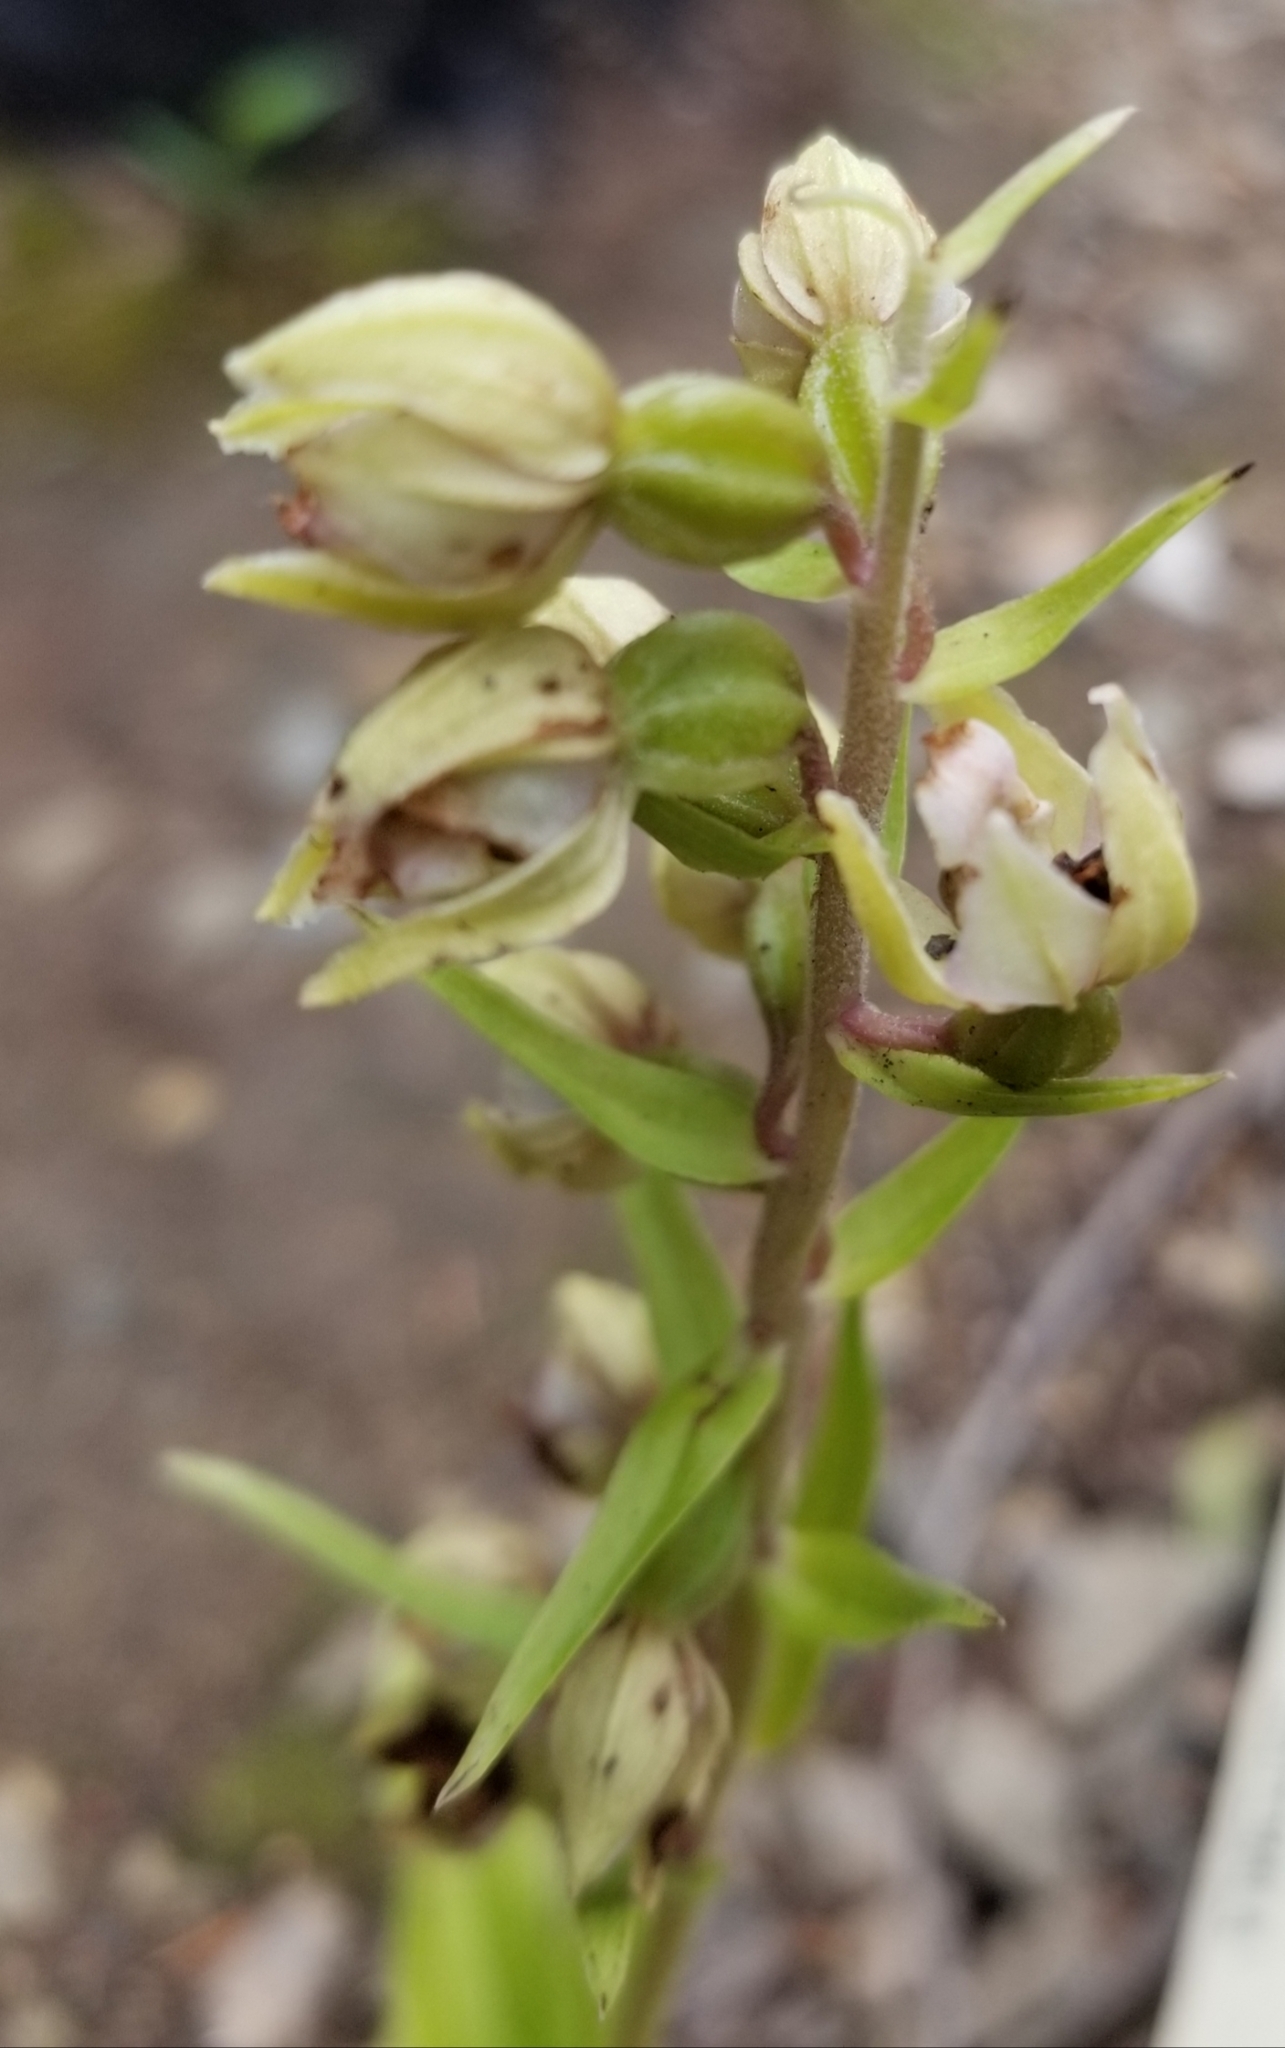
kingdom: Plantae
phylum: Tracheophyta
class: Liliopsida
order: Asparagales
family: Orchidaceae
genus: Epipactis
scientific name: Epipactis helleborine
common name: Broad-leaved helleborine
